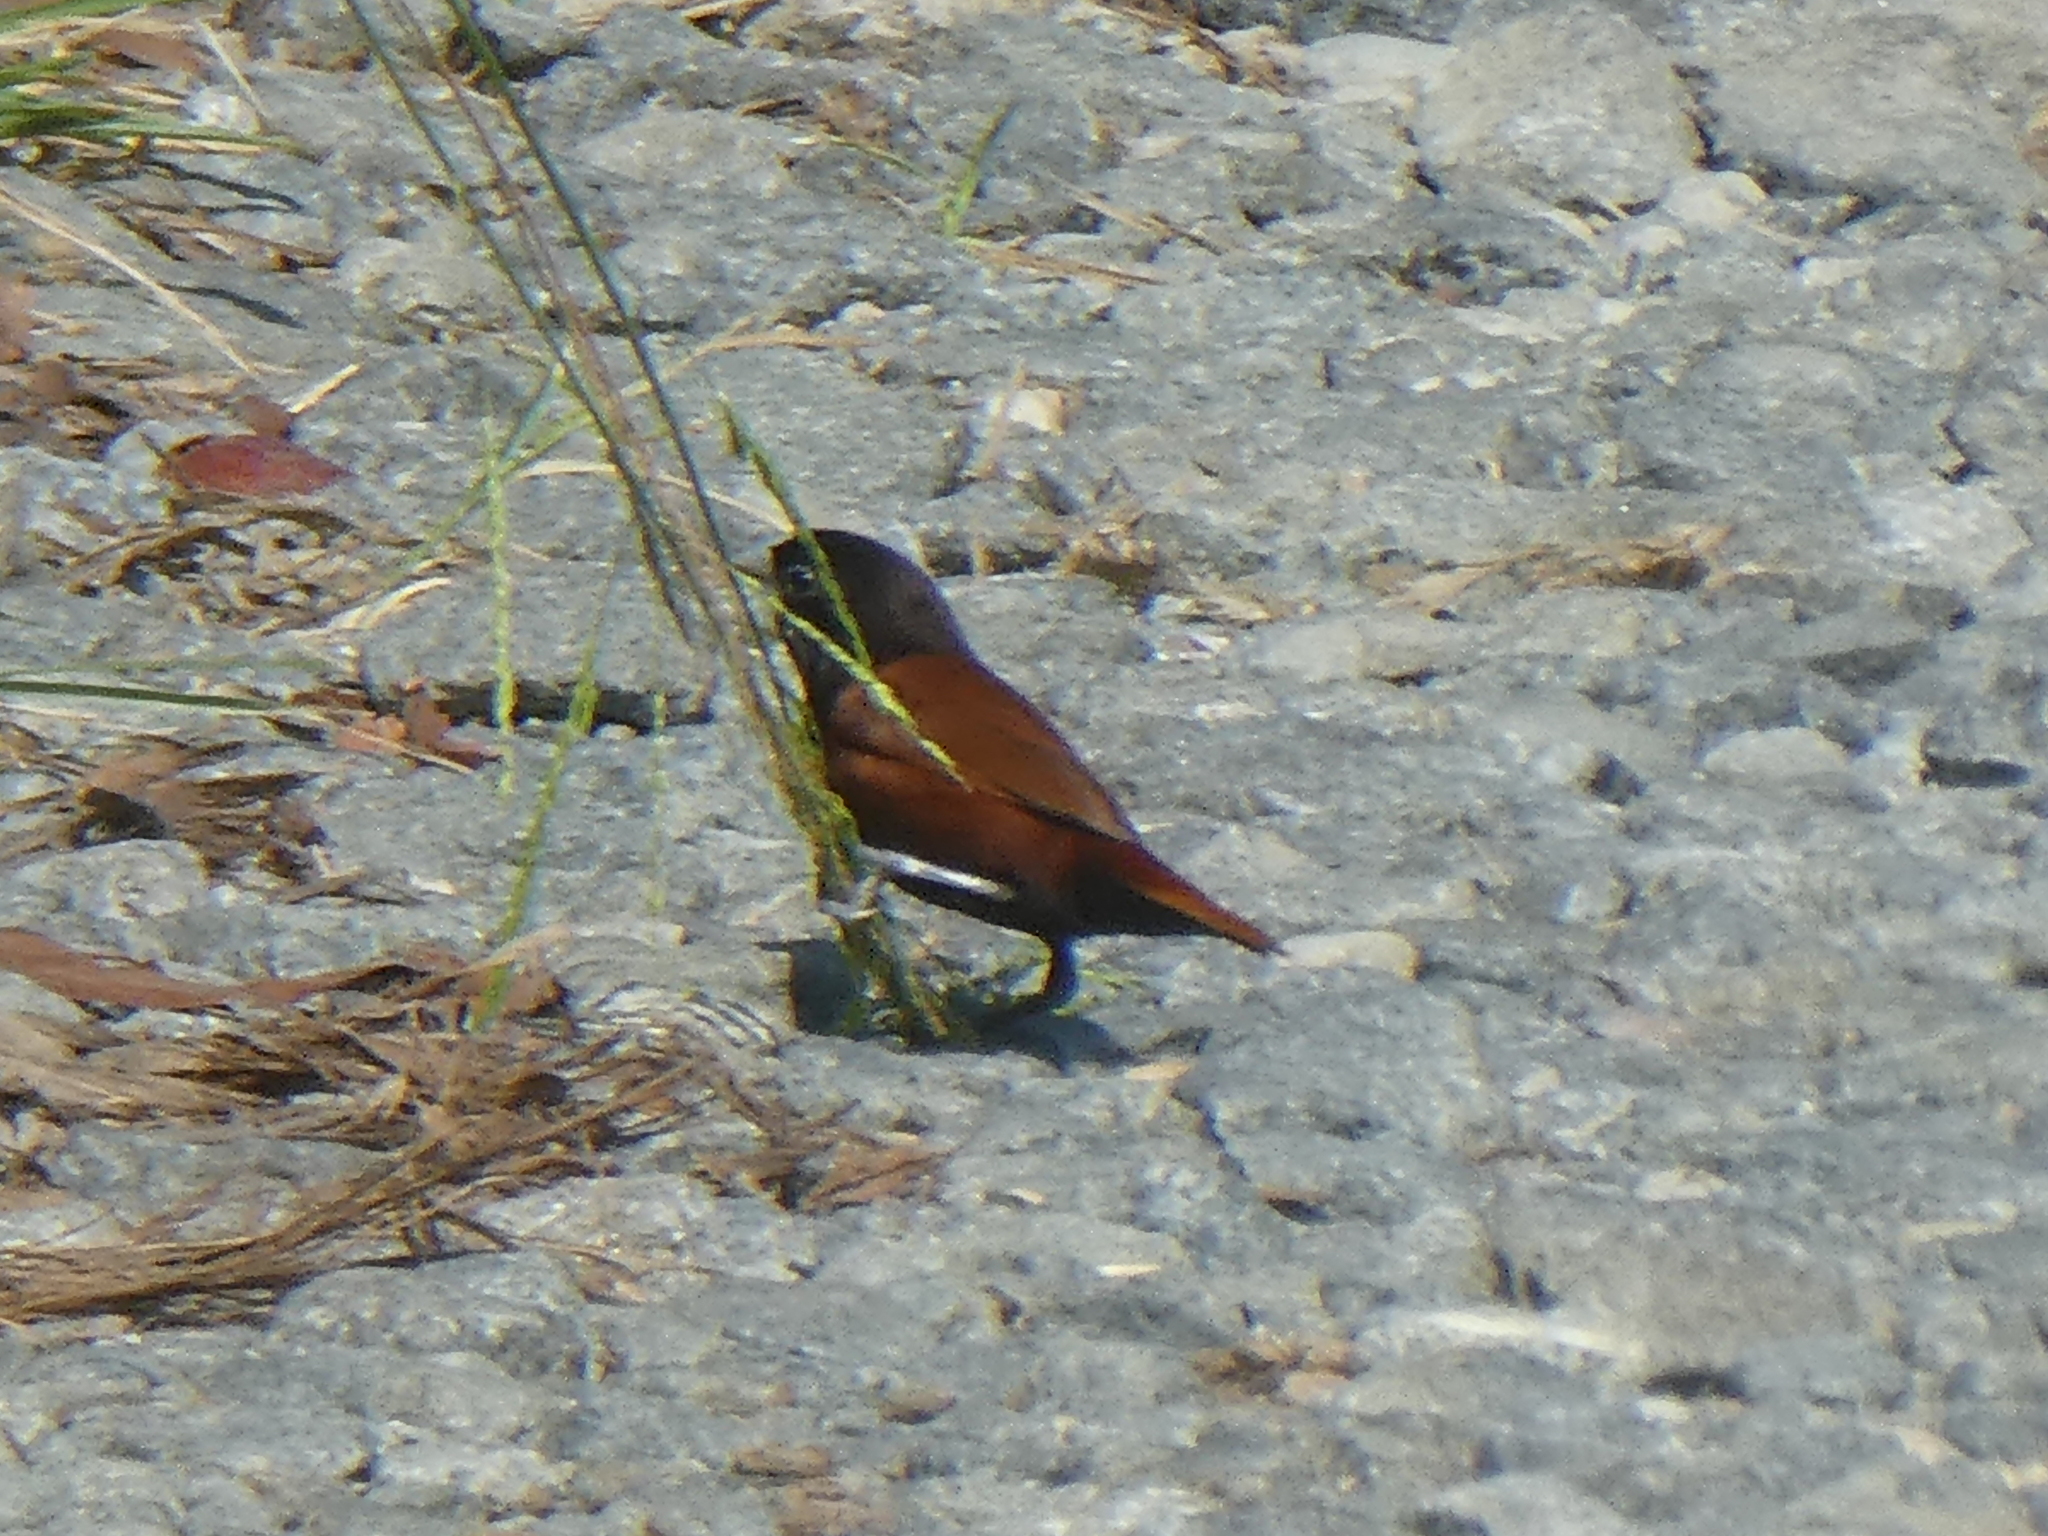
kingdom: Animalia
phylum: Chordata
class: Aves
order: Passeriformes
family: Estrildidae
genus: Lonchura
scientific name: Lonchura atricapilla
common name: Chestnut munia
